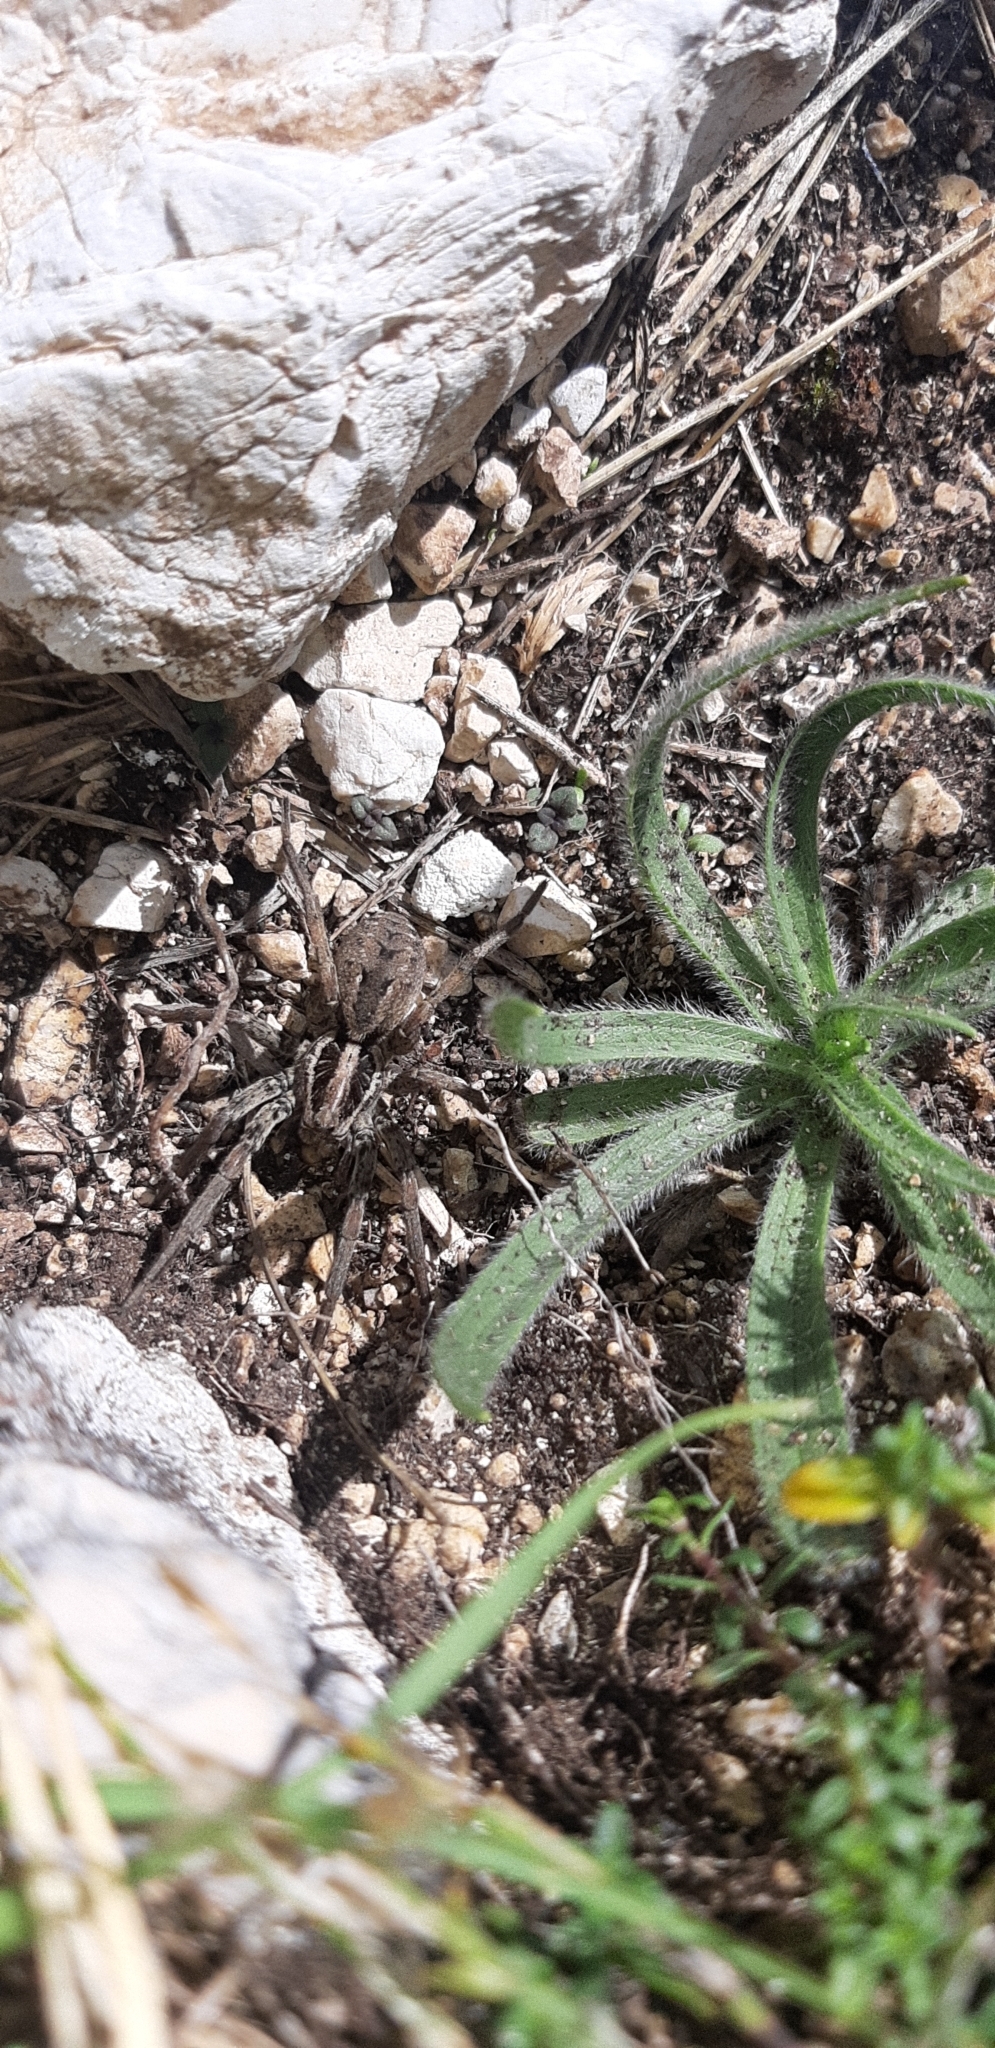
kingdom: Animalia
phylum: Arthropoda
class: Arachnida
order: Araneae
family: Lycosidae
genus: Hogna
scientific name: Hogna radiata
